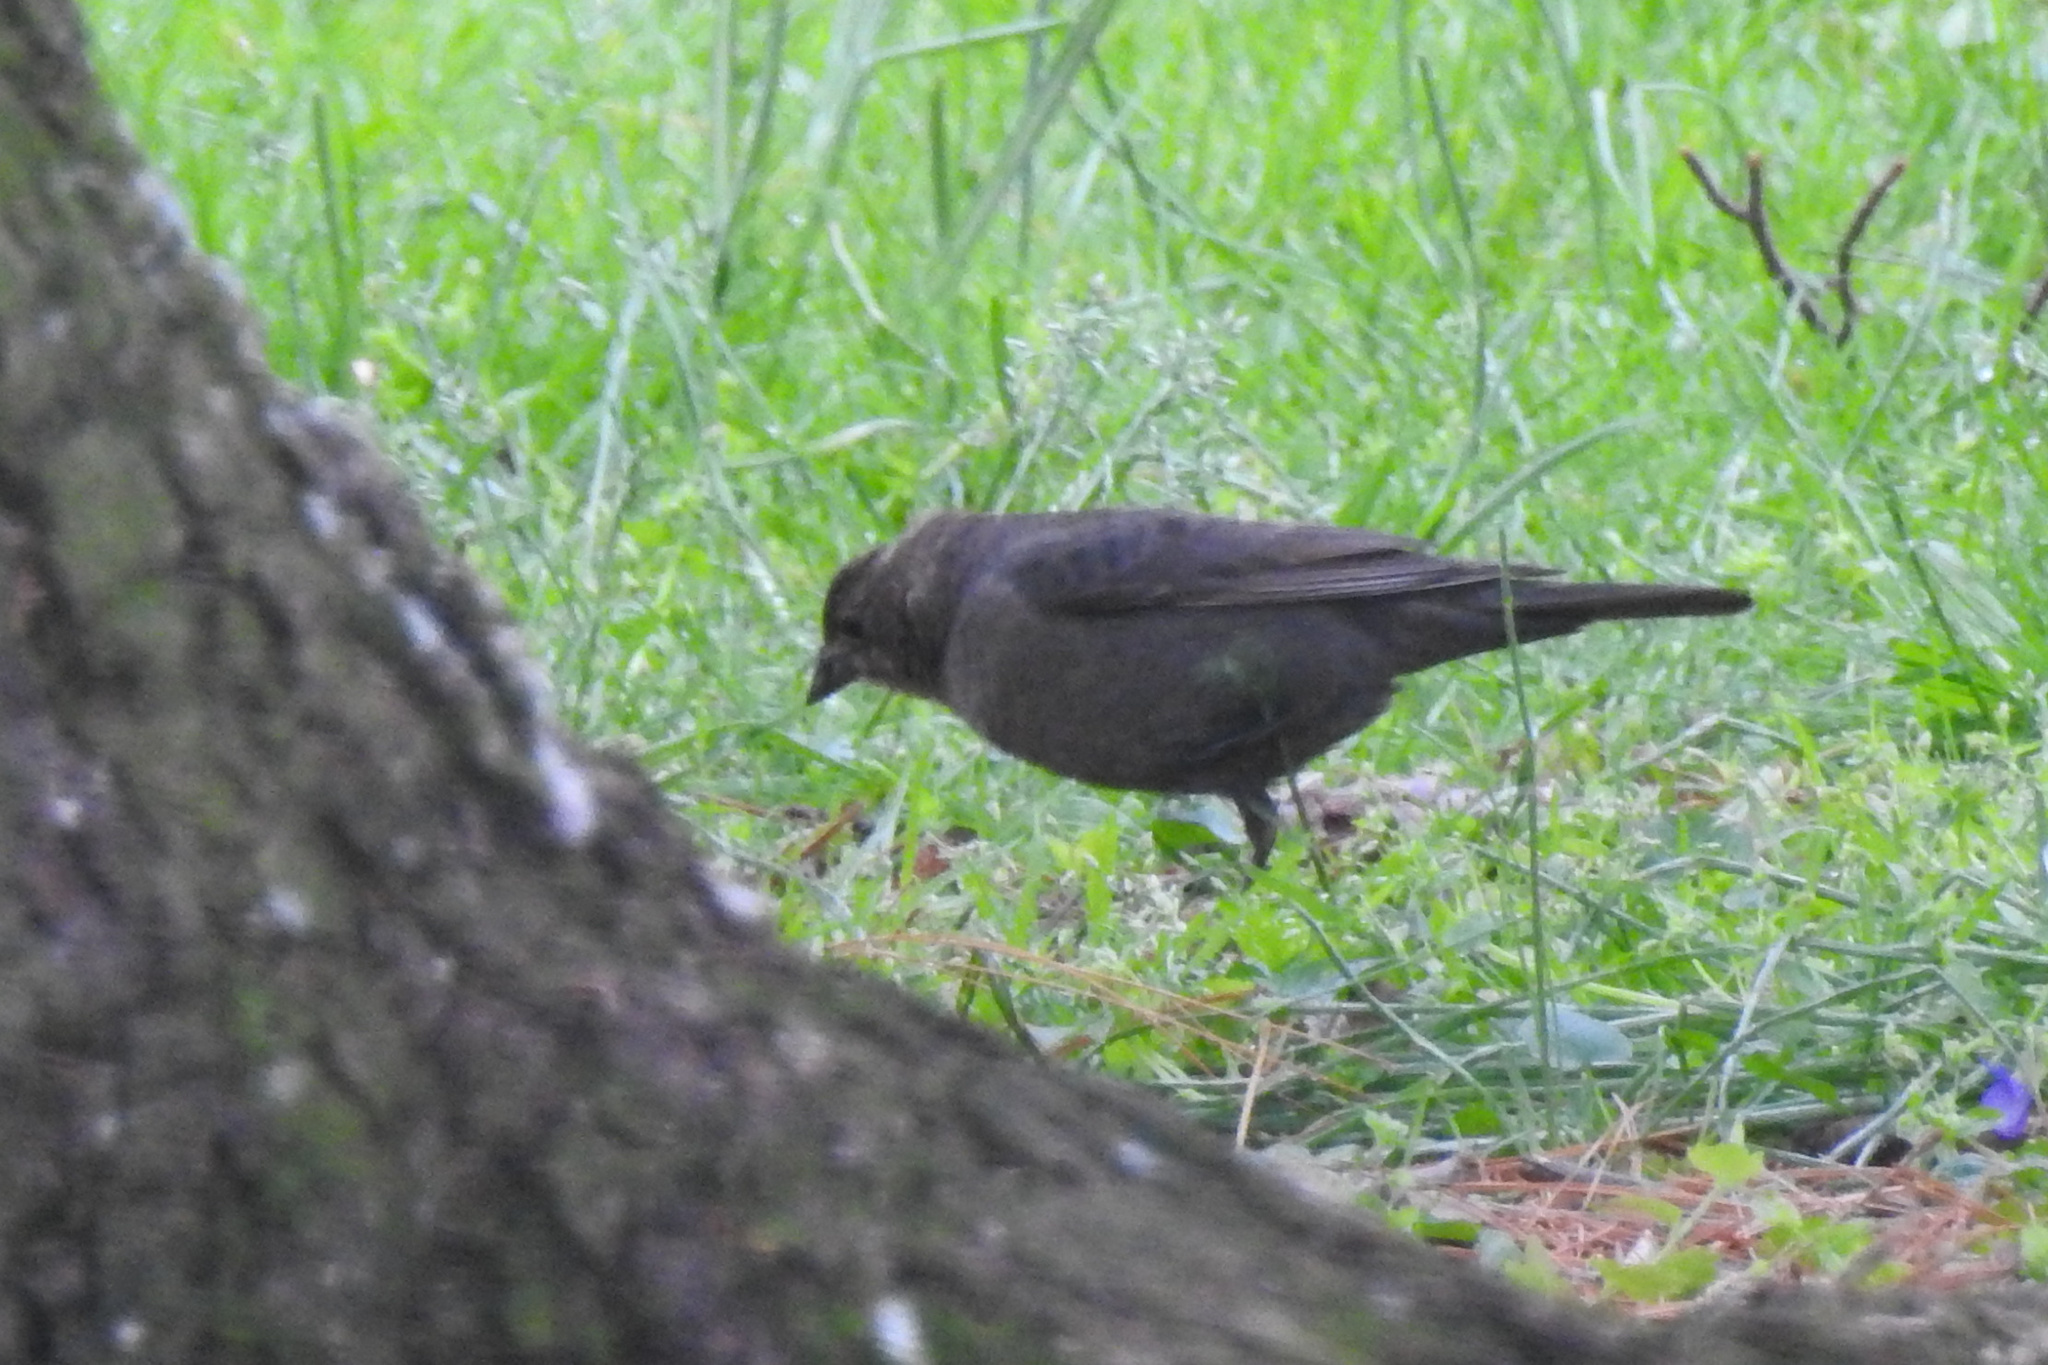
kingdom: Animalia
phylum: Chordata
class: Aves
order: Passeriformes
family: Icteridae
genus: Molothrus
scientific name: Molothrus ater
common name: Brown-headed cowbird
